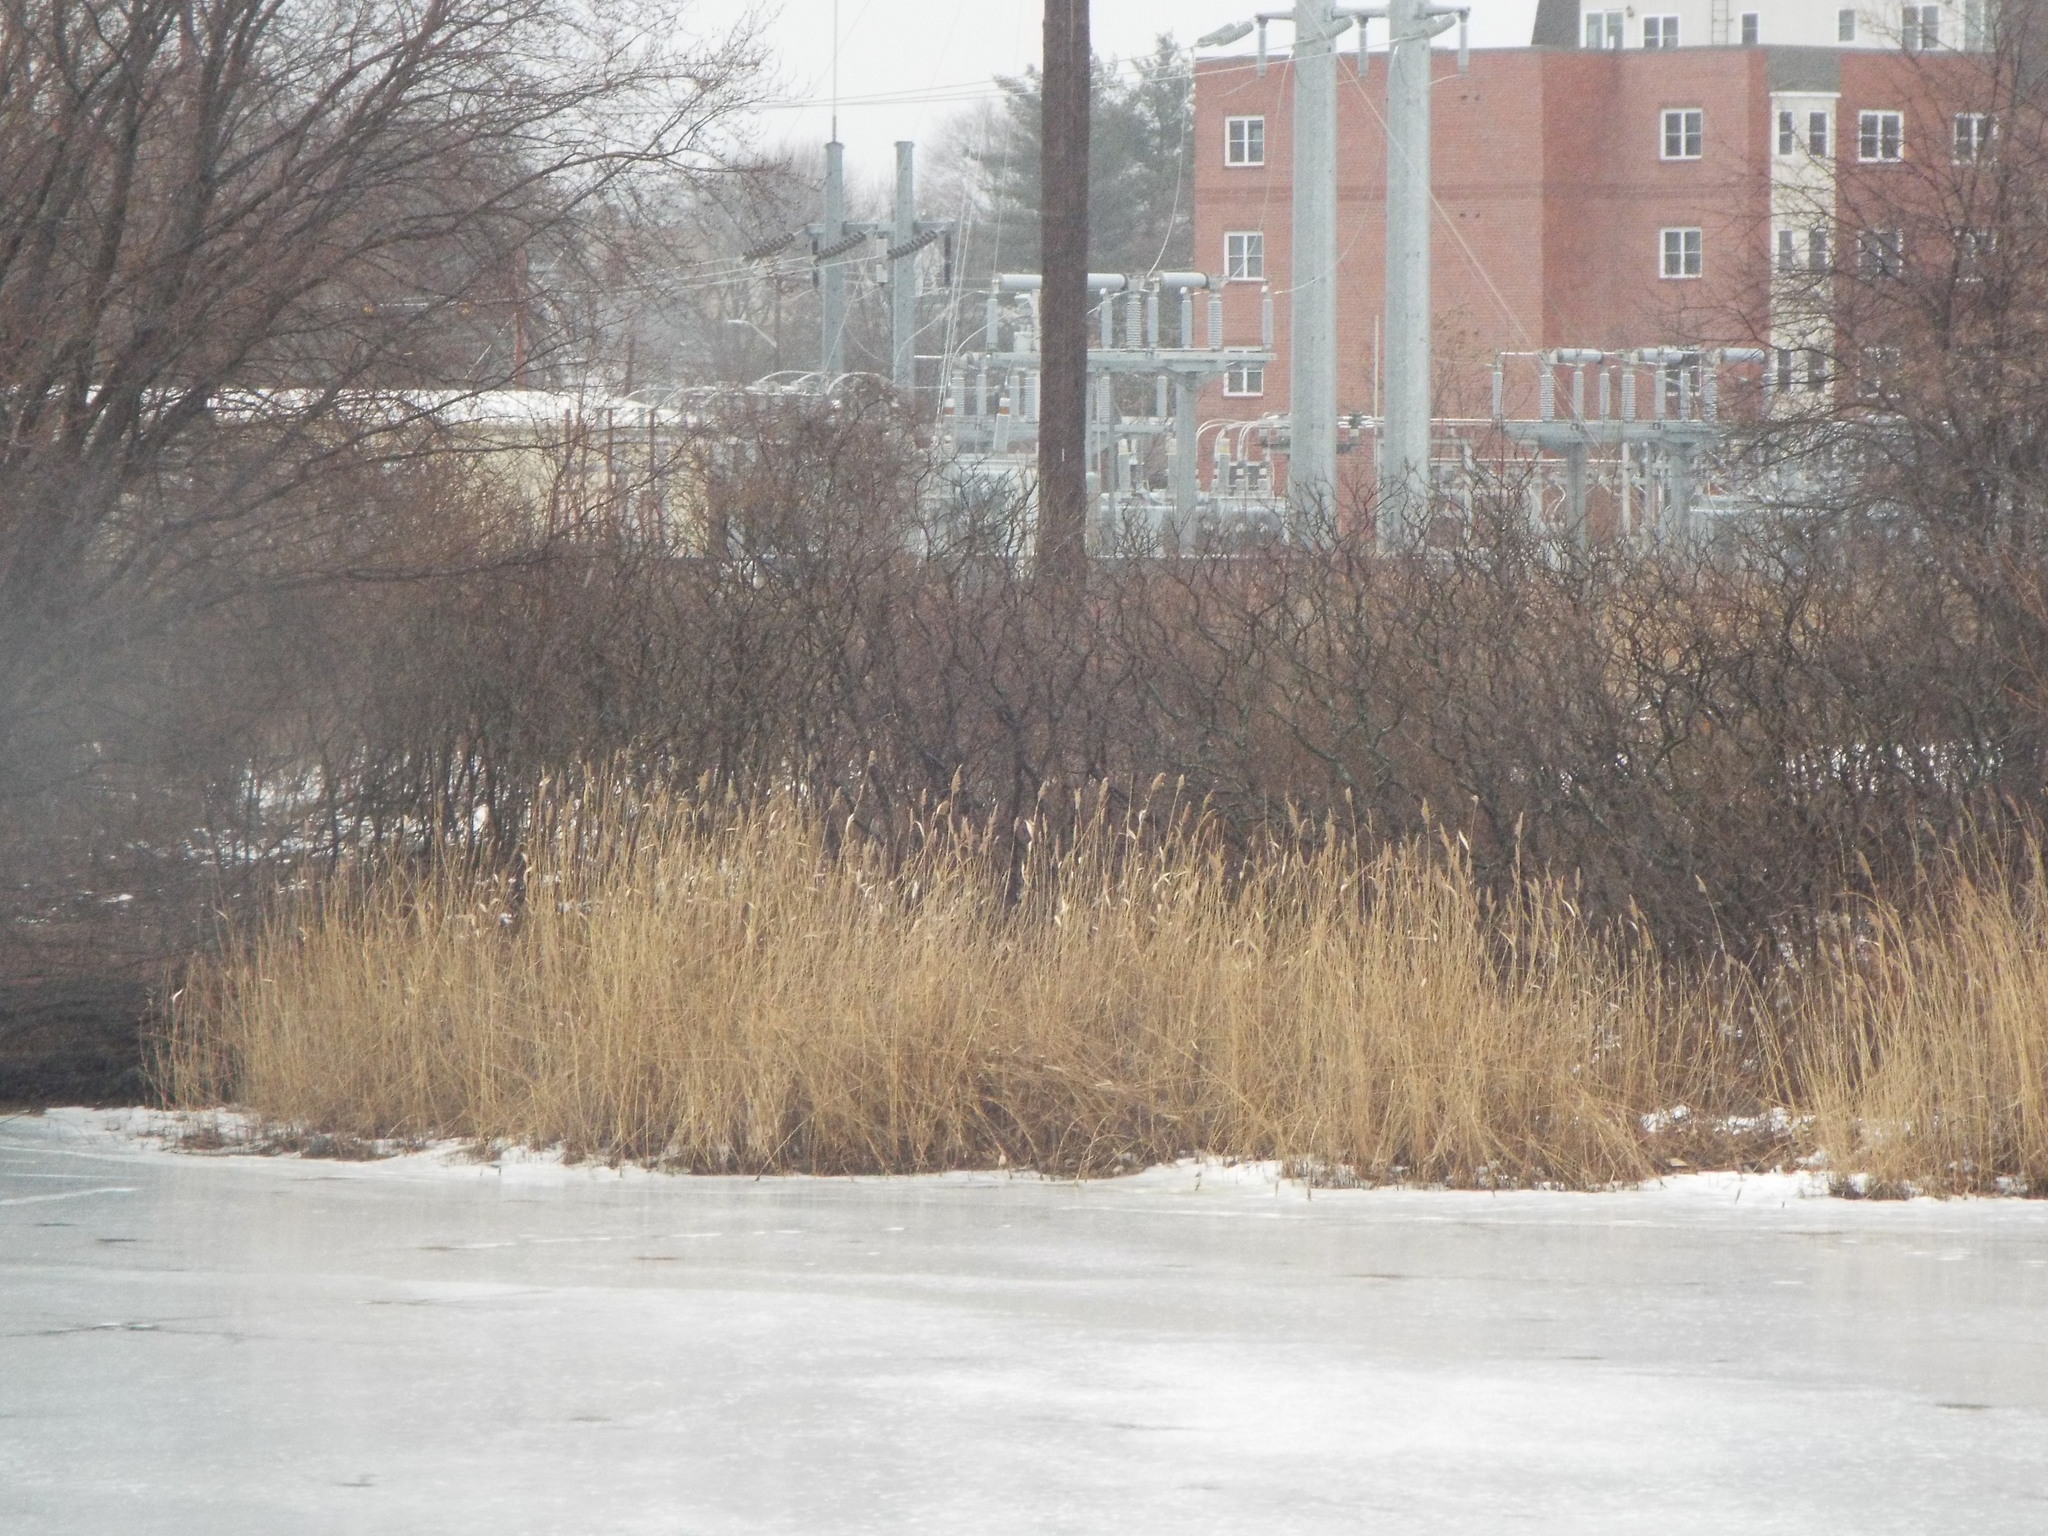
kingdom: Plantae
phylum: Tracheophyta
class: Liliopsida
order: Poales
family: Poaceae
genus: Phragmites
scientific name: Phragmites australis
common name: Common reed
